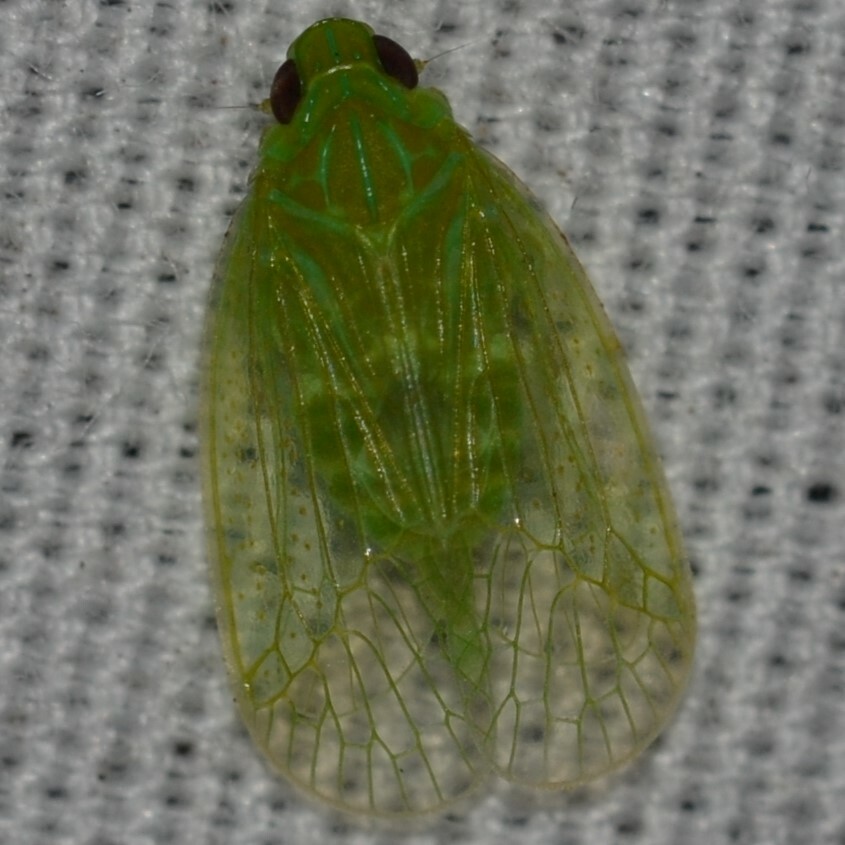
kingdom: Animalia
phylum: Arthropoda
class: Insecta
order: Hemiptera
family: Tropiduchidae
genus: Kallitaxila
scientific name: Kallitaxila granulata
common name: Planthopper
